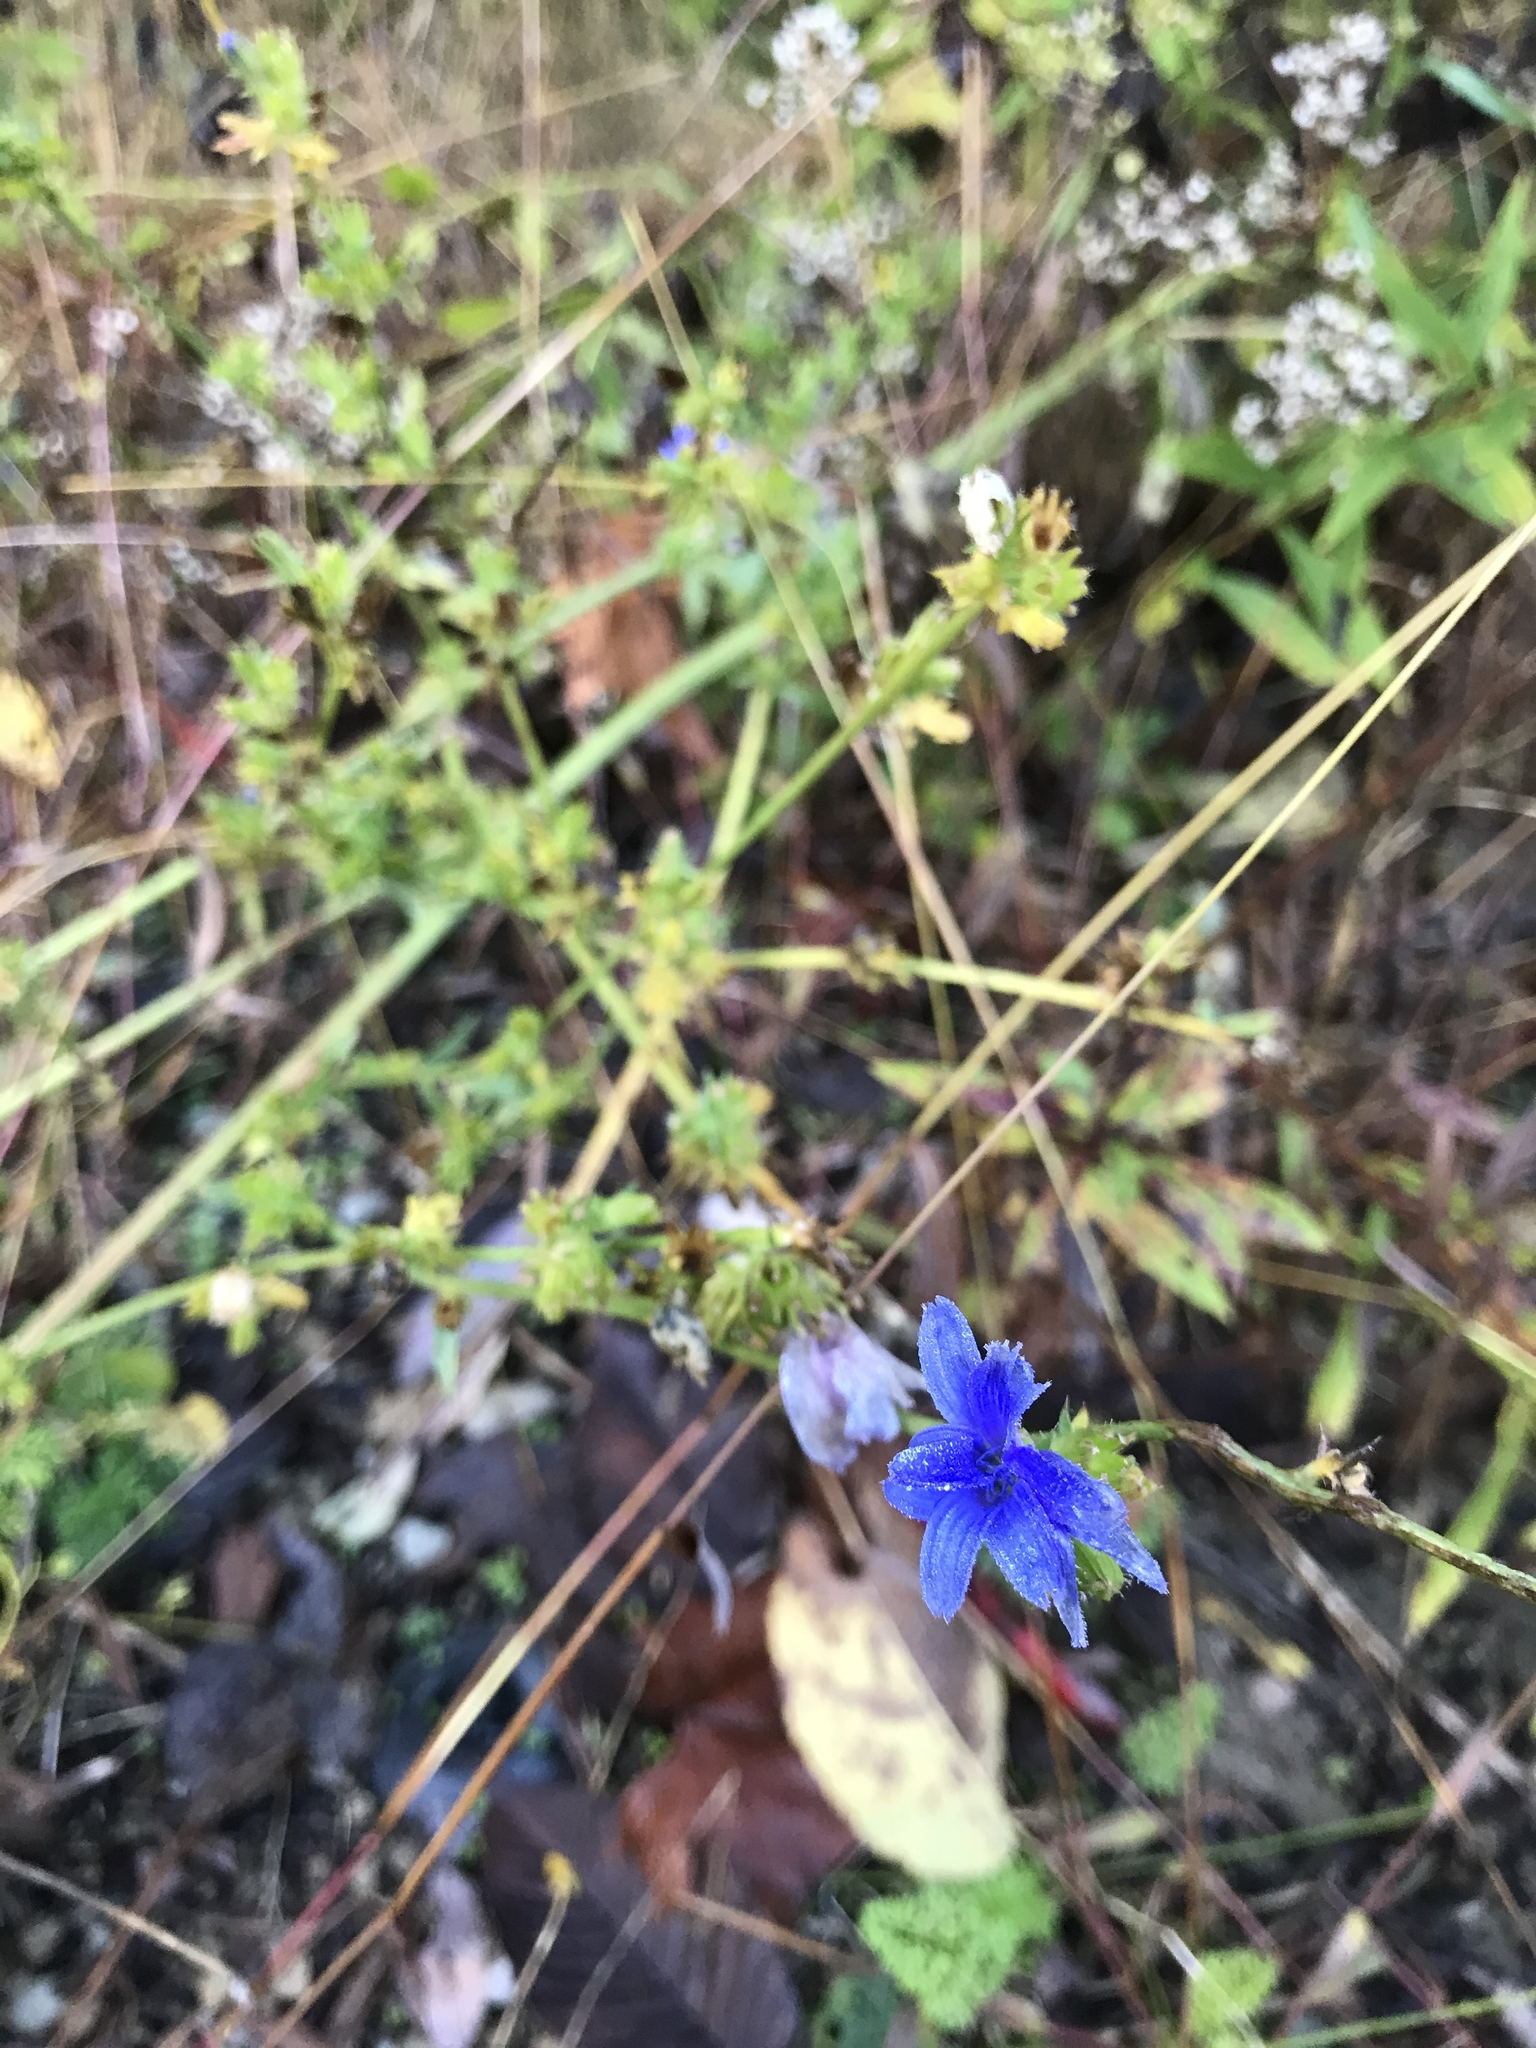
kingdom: Plantae
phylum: Tracheophyta
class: Magnoliopsida
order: Asterales
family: Asteraceae
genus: Cichorium
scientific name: Cichorium intybus
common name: Chicory
